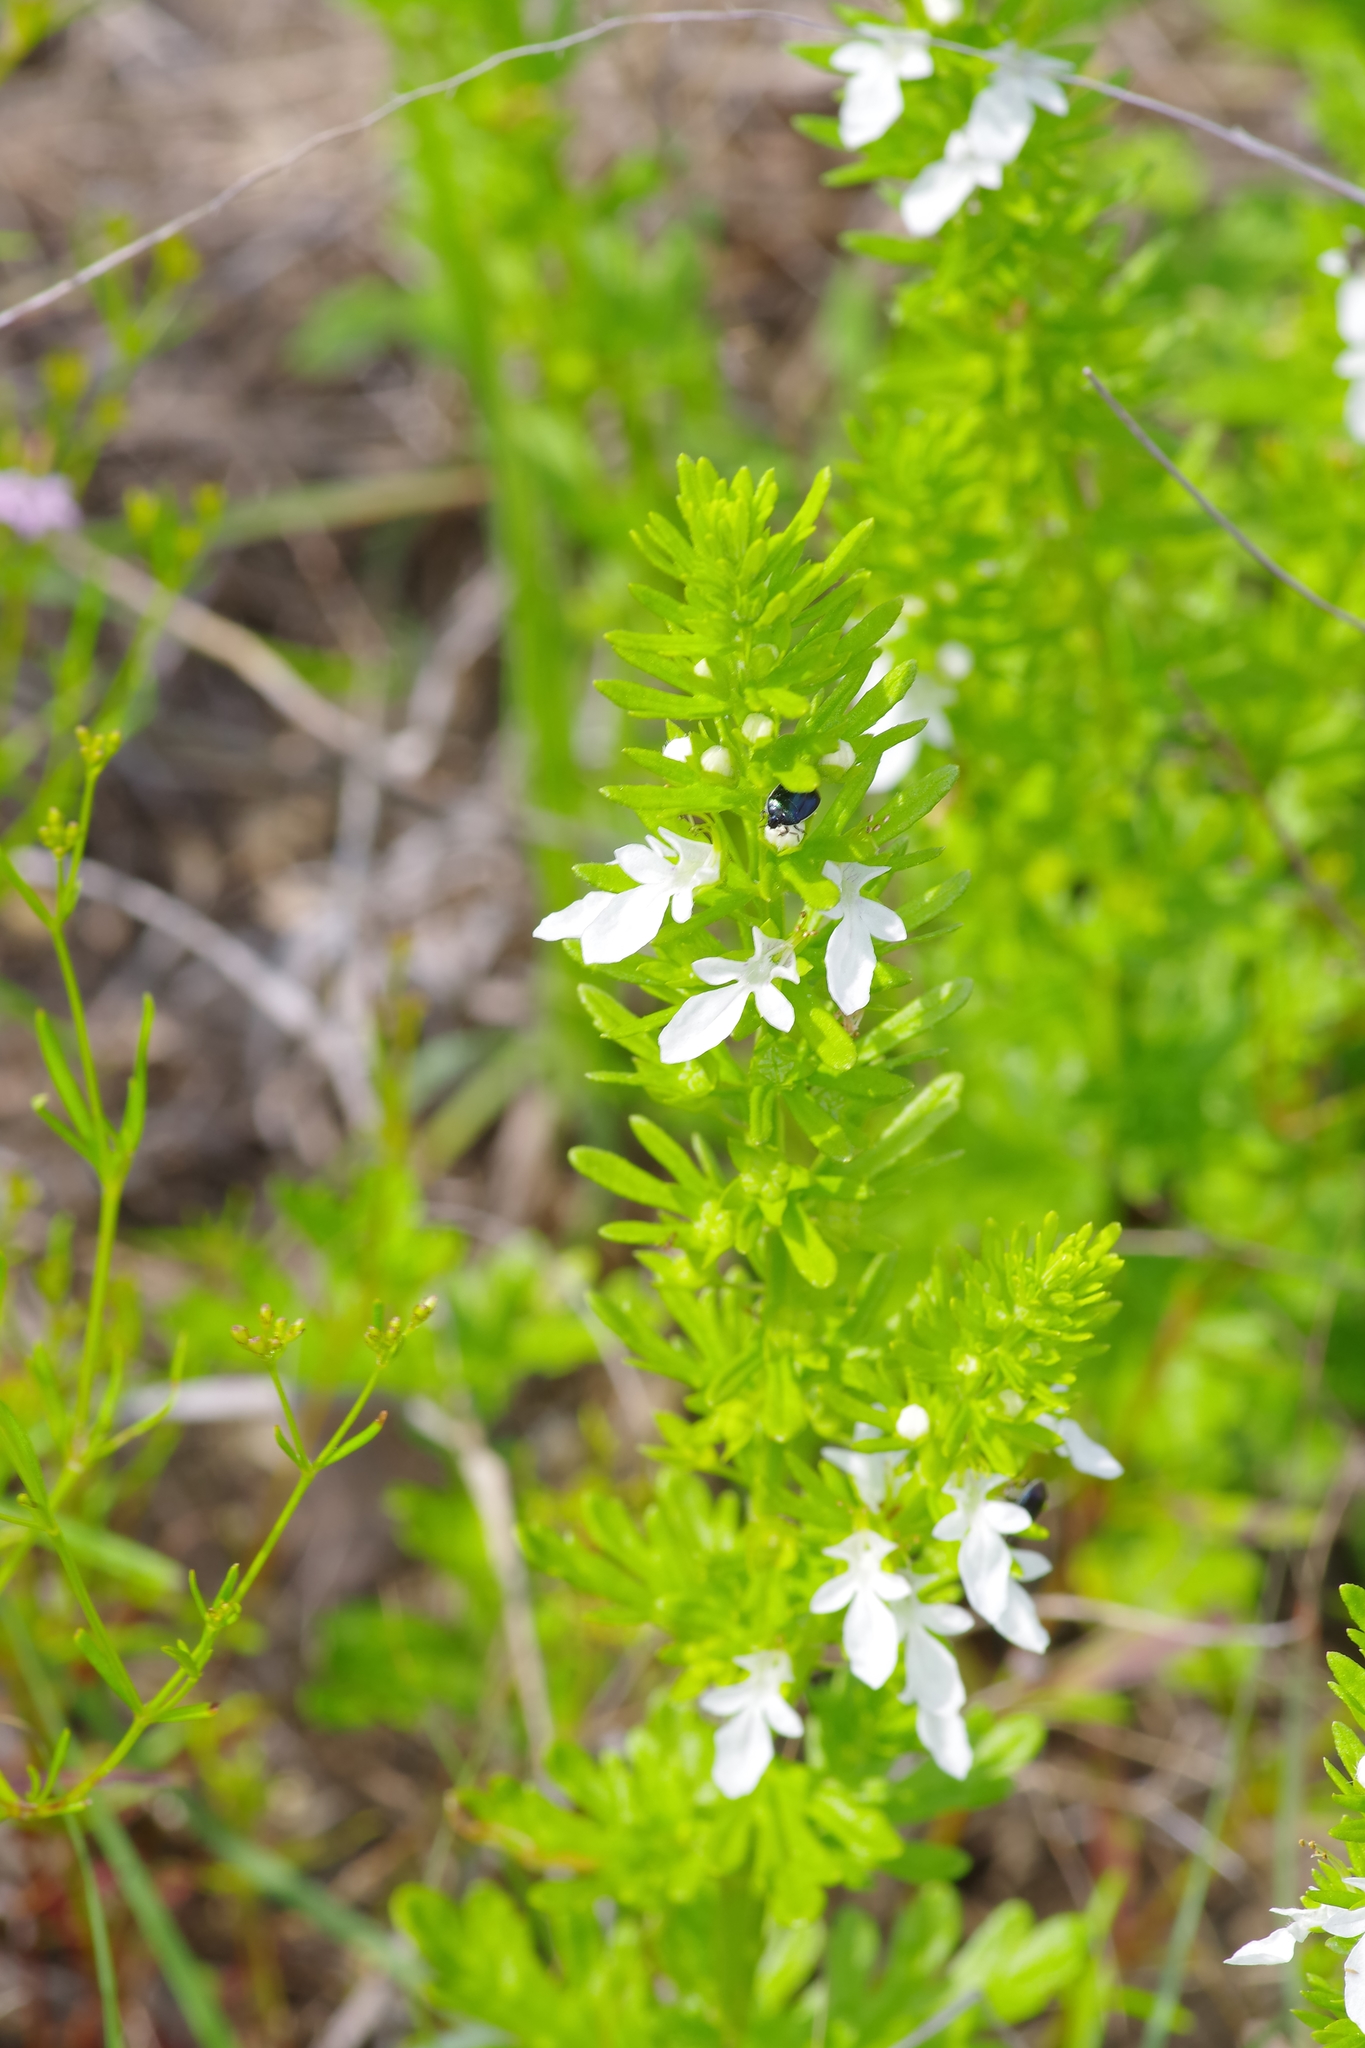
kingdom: Plantae
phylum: Tracheophyta
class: Magnoliopsida
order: Lamiales
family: Lamiaceae
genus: Teucrium
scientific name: Teucrium cubense
